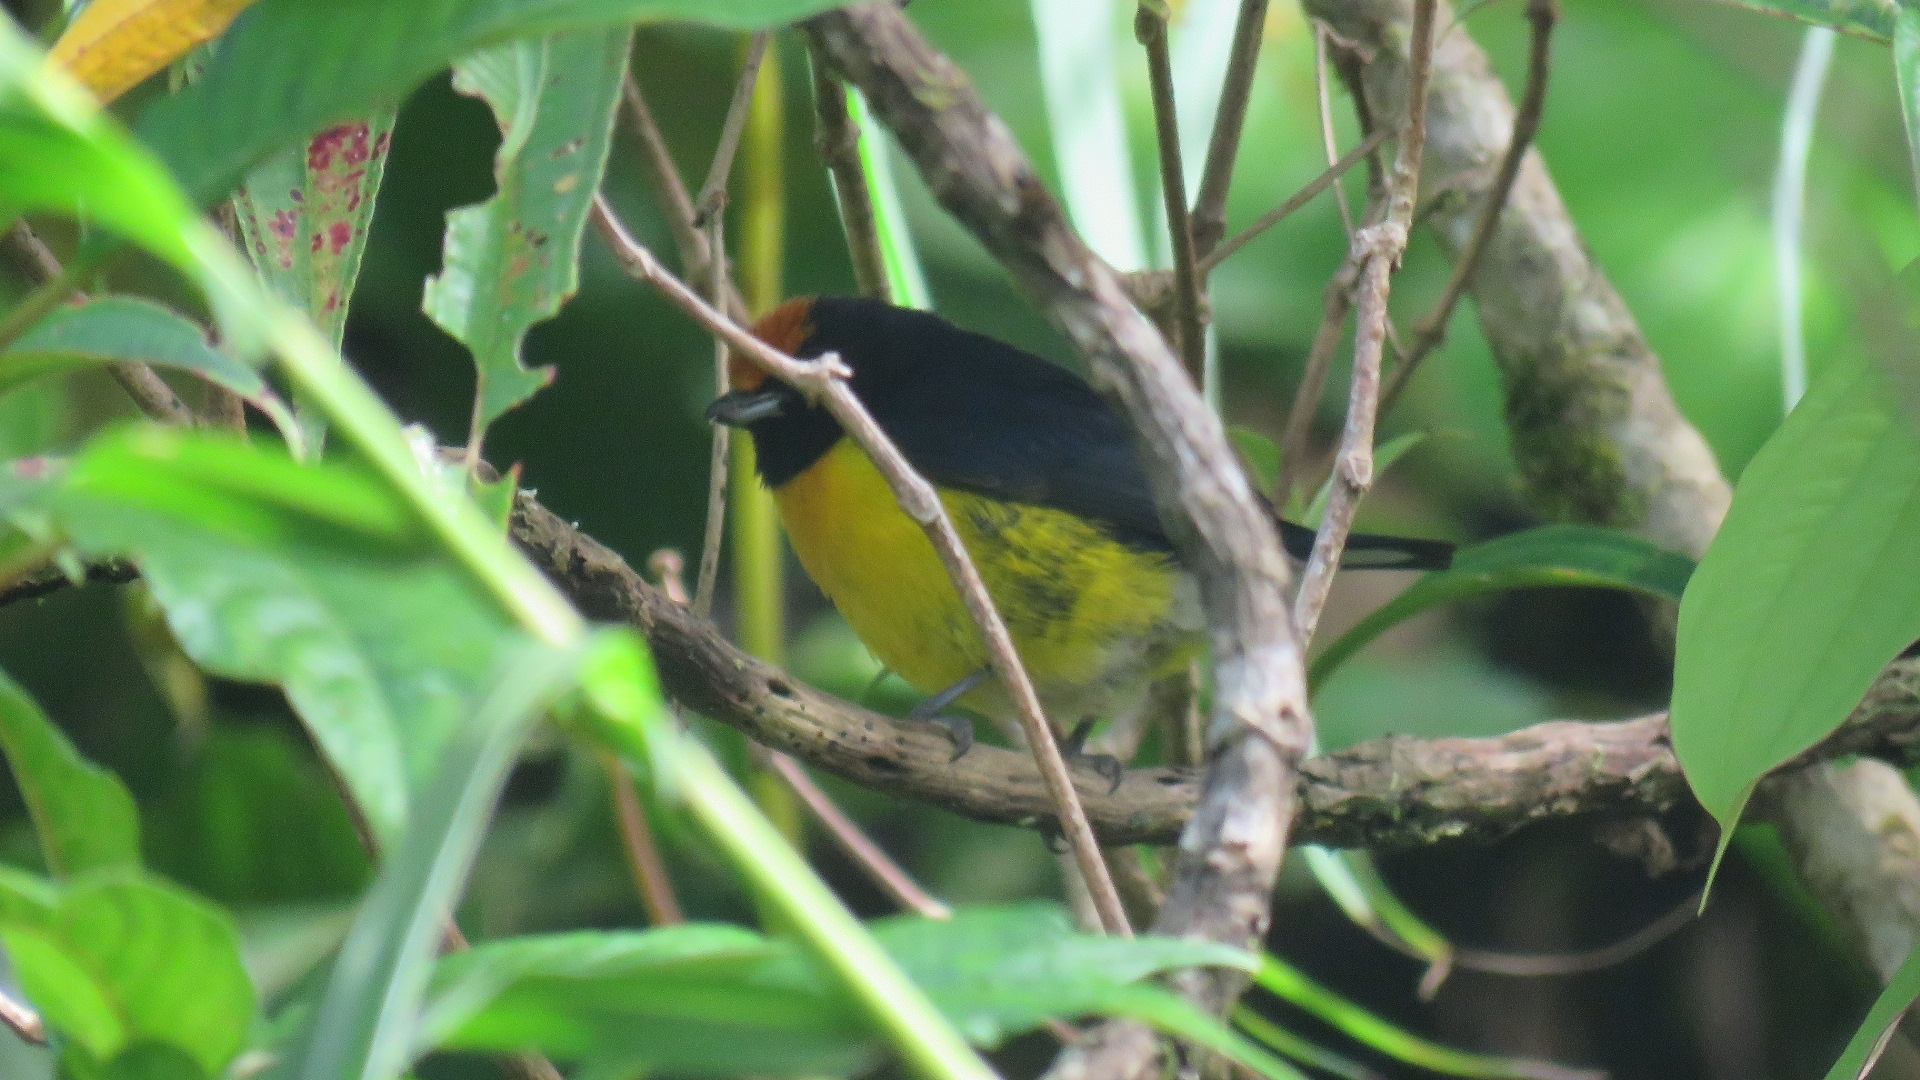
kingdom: Animalia
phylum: Chordata
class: Aves
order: Passeriformes
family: Fringillidae
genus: Euphonia
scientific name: Euphonia anneae
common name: Tawny-capped euphonia
